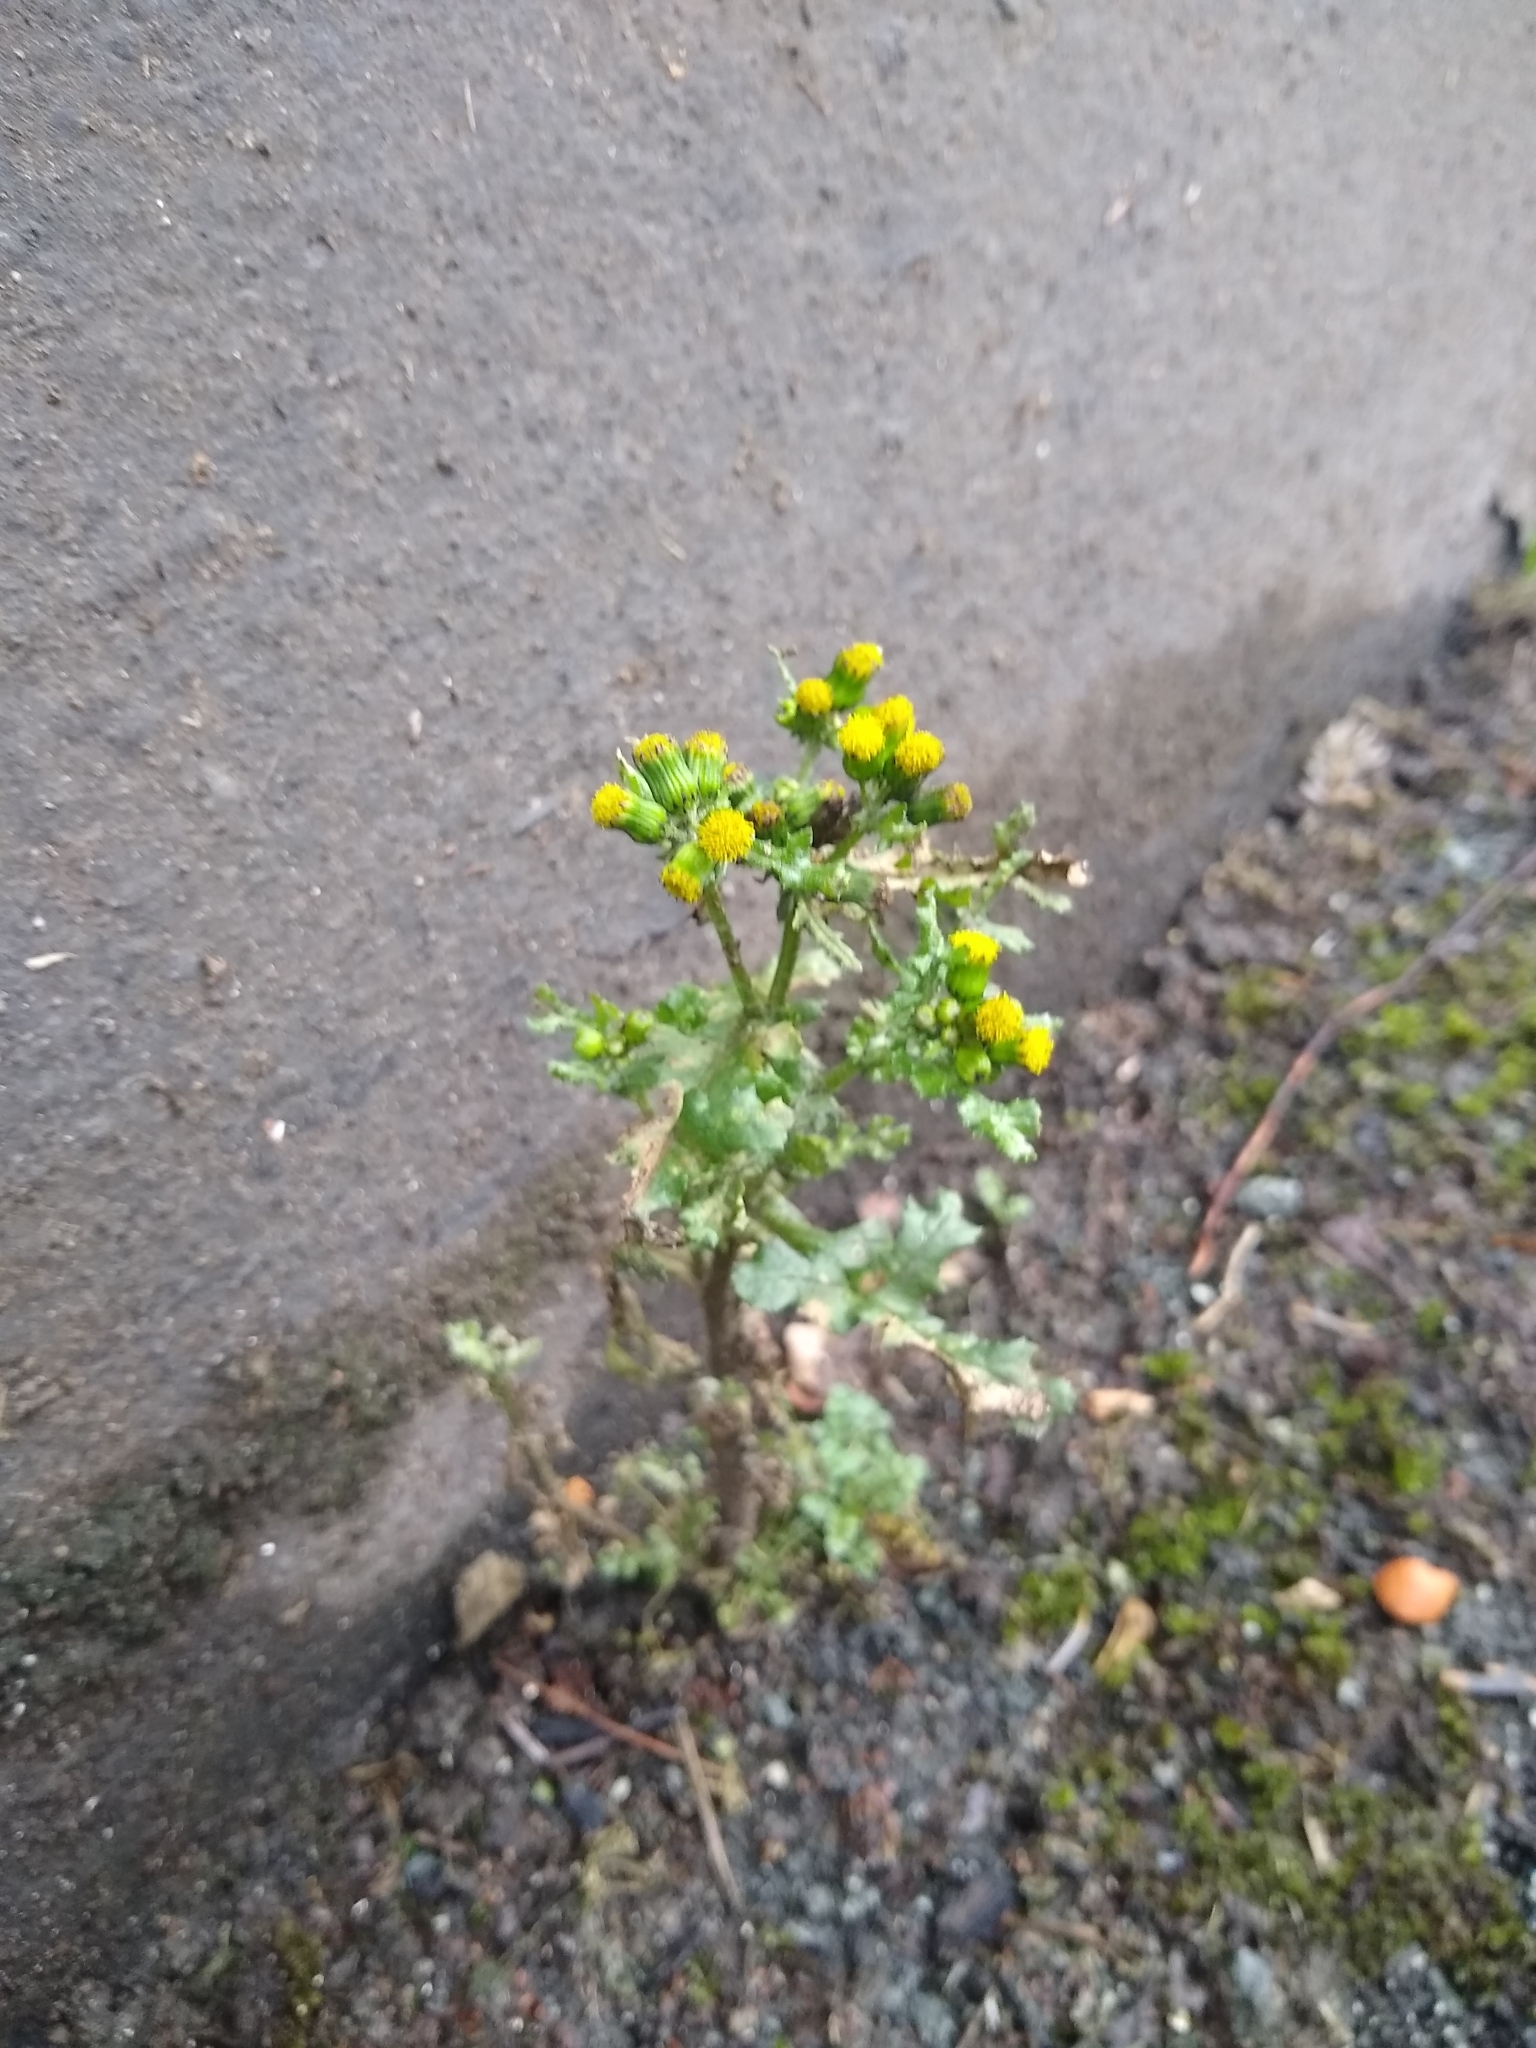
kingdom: Plantae
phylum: Tracheophyta
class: Magnoliopsida
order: Asterales
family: Asteraceae
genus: Senecio
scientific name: Senecio vulgaris
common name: Old-man-in-the-spring
